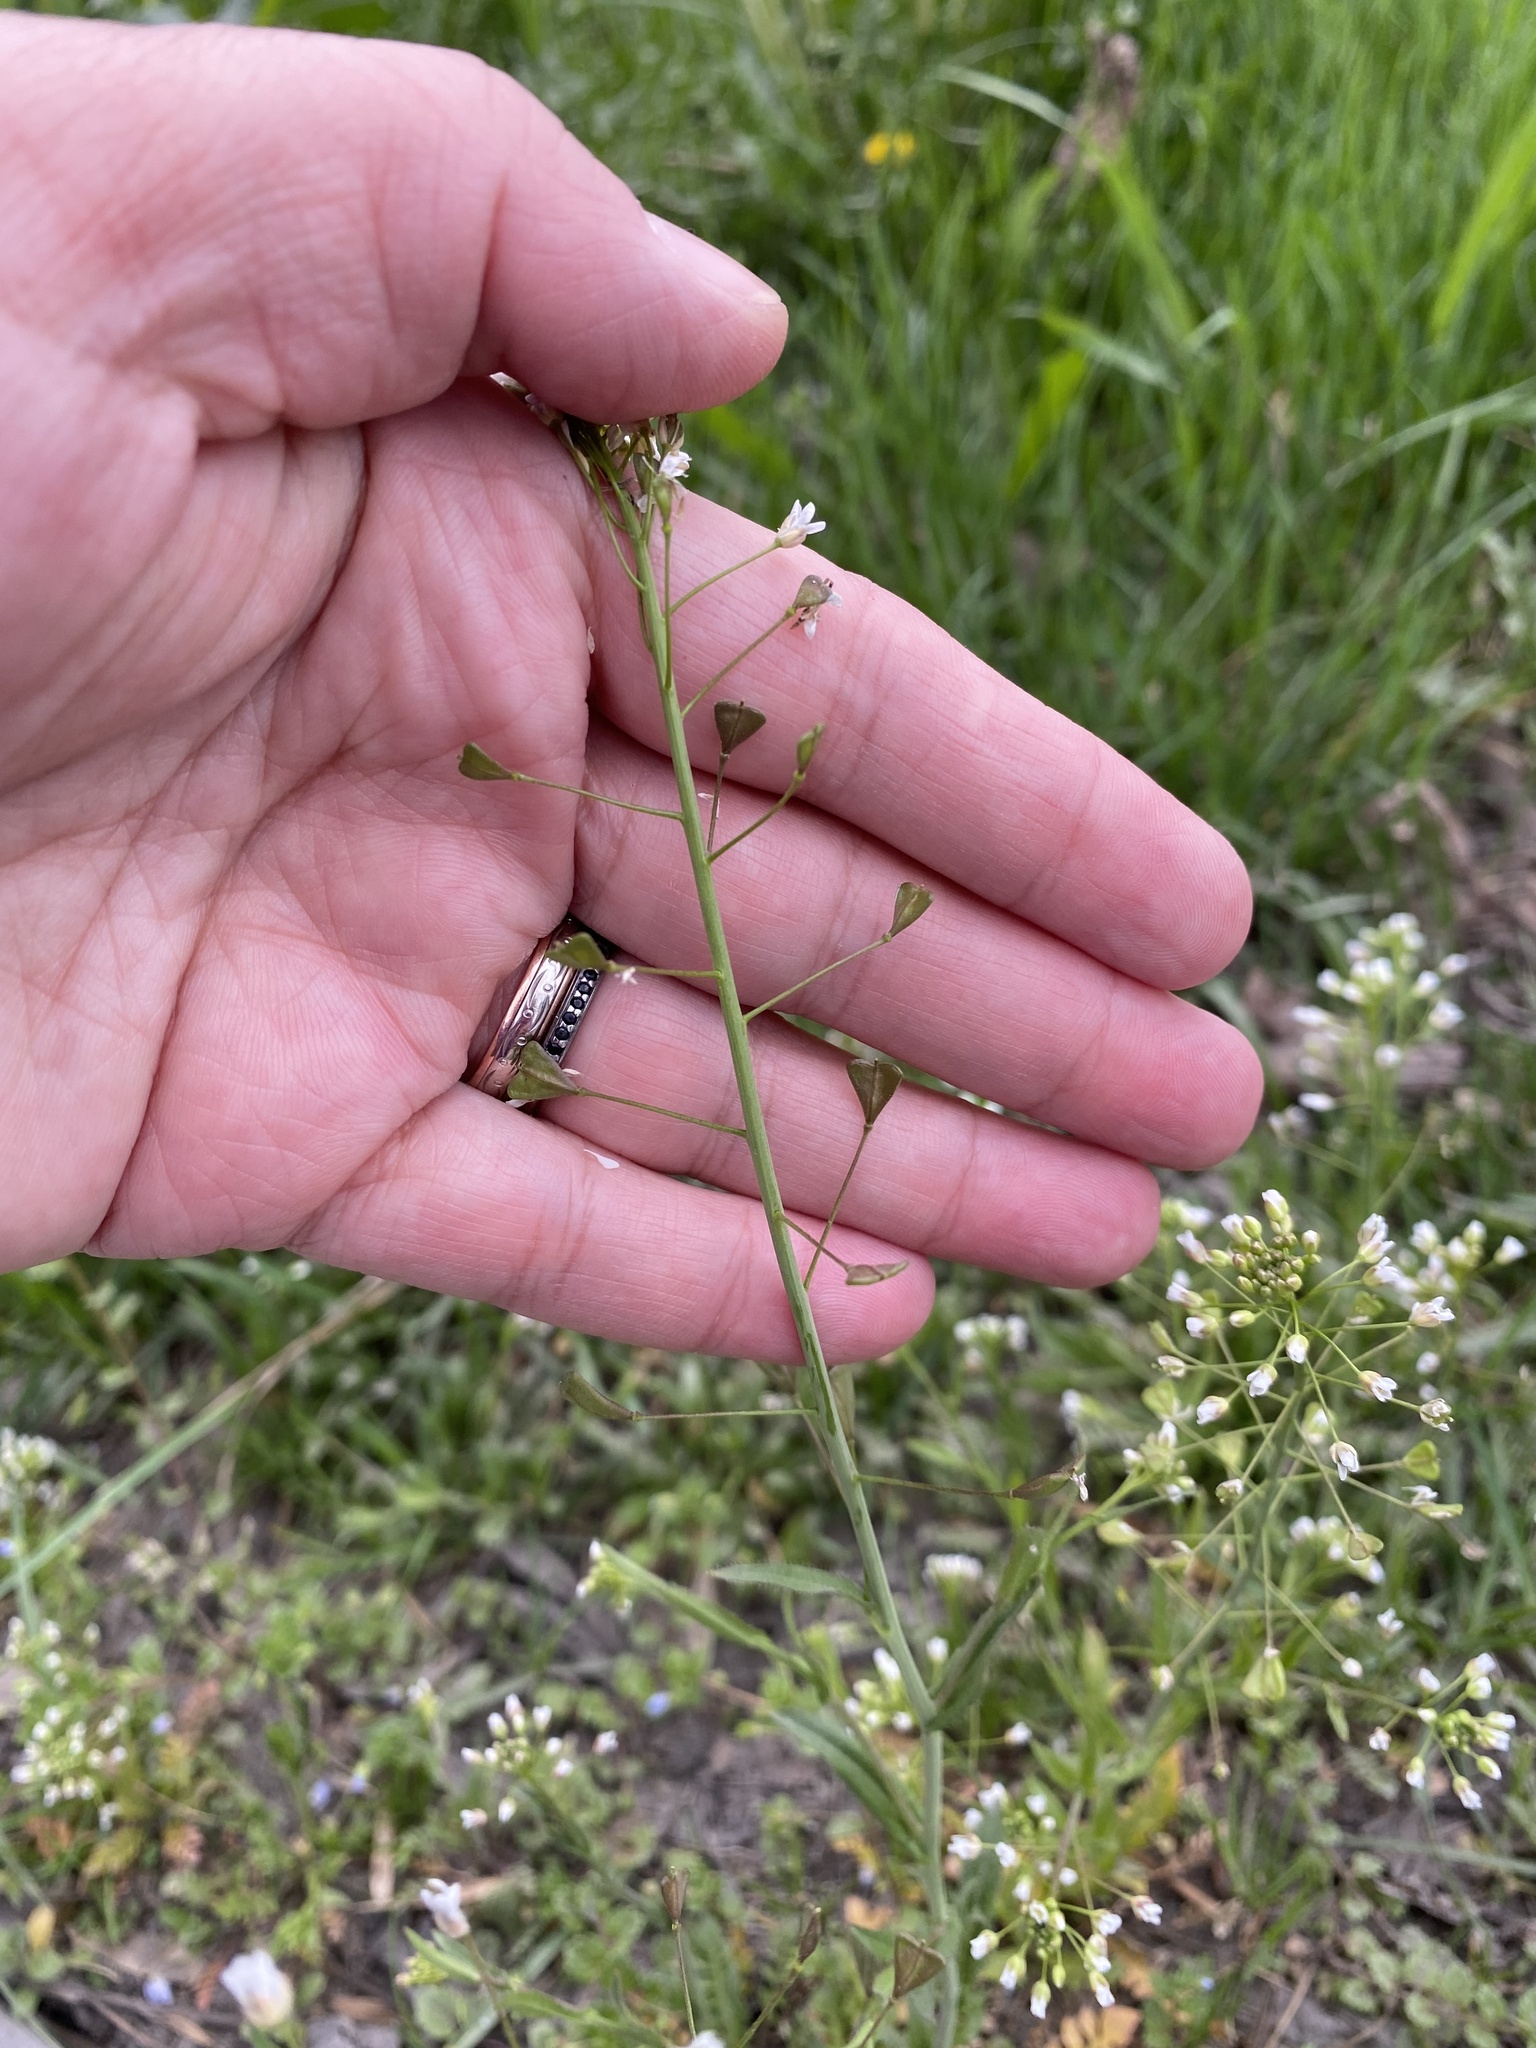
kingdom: Plantae
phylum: Tracheophyta
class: Magnoliopsida
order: Brassicales
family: Brassicaceae
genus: Capsella
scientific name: Capsella bursa-pastoris
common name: Shepherd's purse
